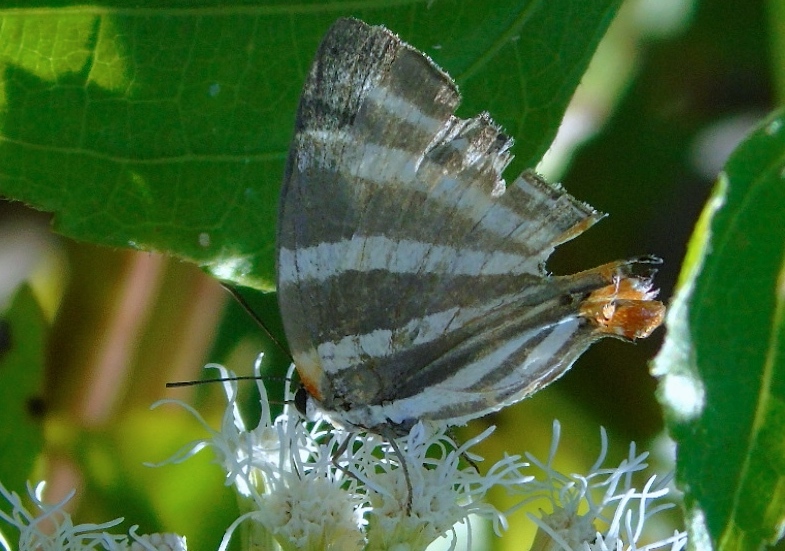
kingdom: Animalia
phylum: Arthropoda
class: Insecta
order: Lepidoptera
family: Lycaenidae
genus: Thecla
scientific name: Thecla bathildis
